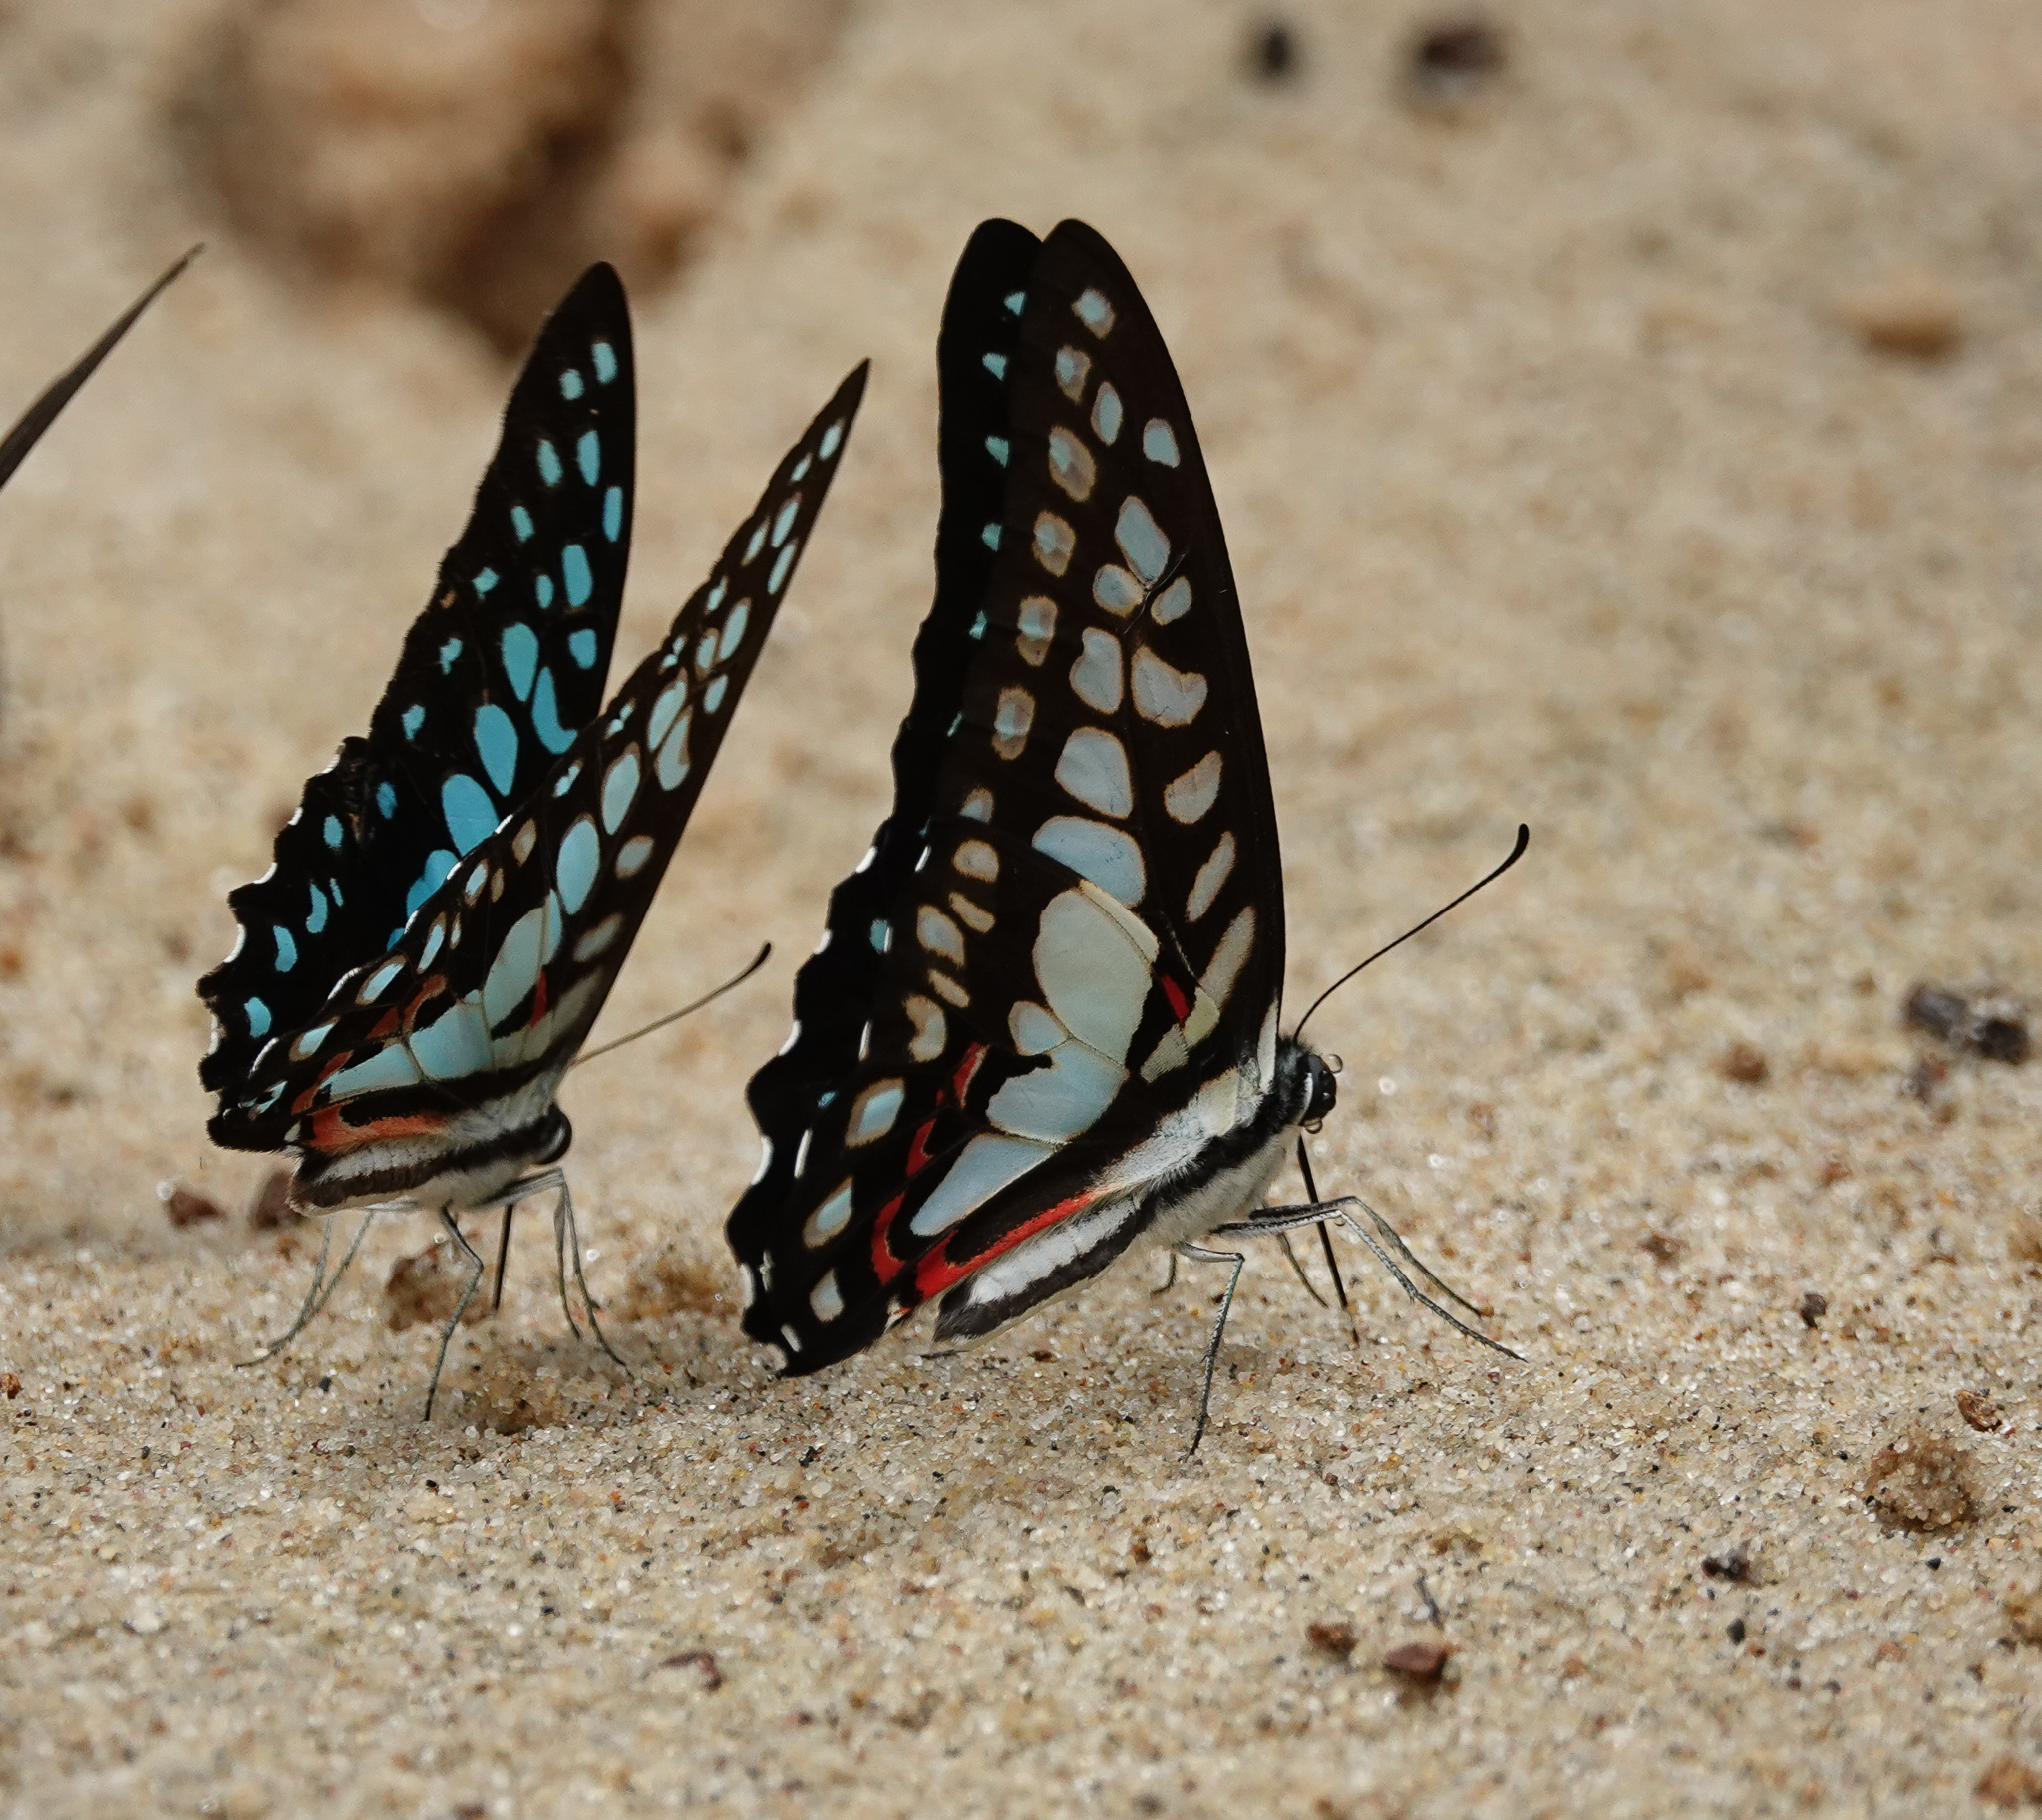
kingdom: Animalia
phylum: Arthropoda
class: Insecta
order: Lepidoptera
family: Papilionidae
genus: Graphium
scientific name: Graphium doson
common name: Common jay
